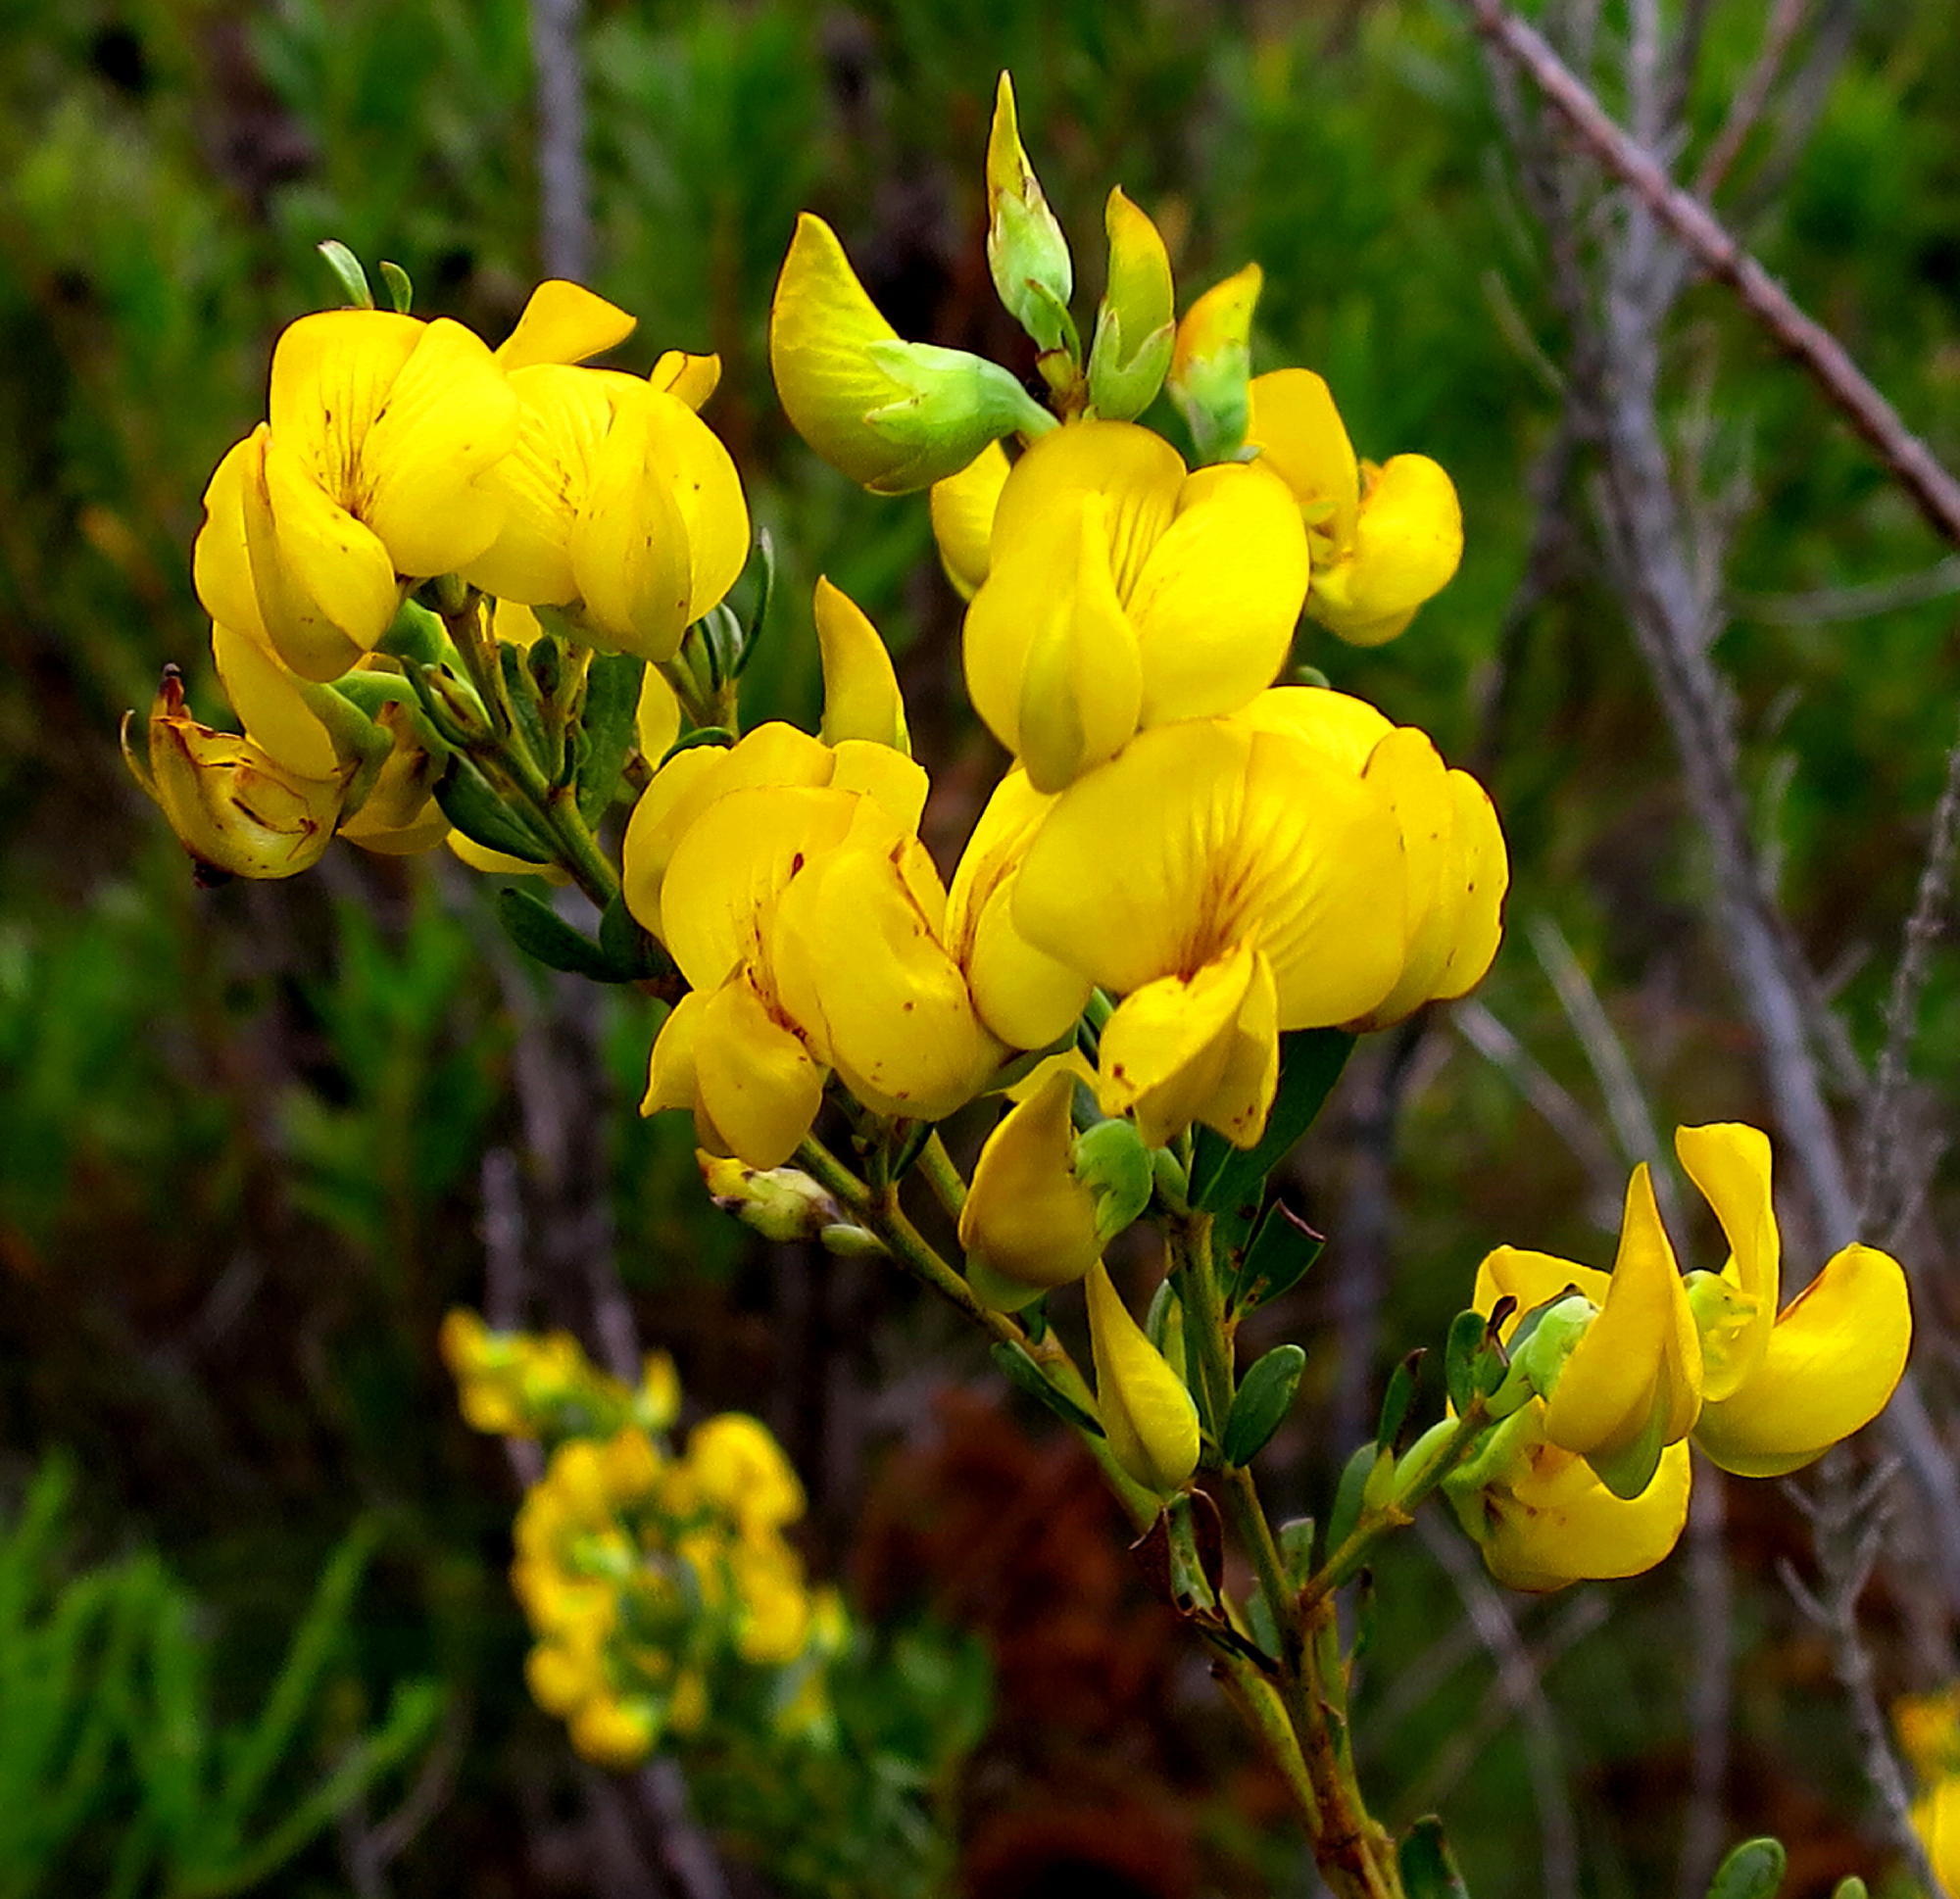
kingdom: Plantae
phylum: Tracheophyta
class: Magnoliopsida
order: Fabales
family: Fabaceae
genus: Cyclopia
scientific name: Cyclopia subternata
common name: Honeybush tea
